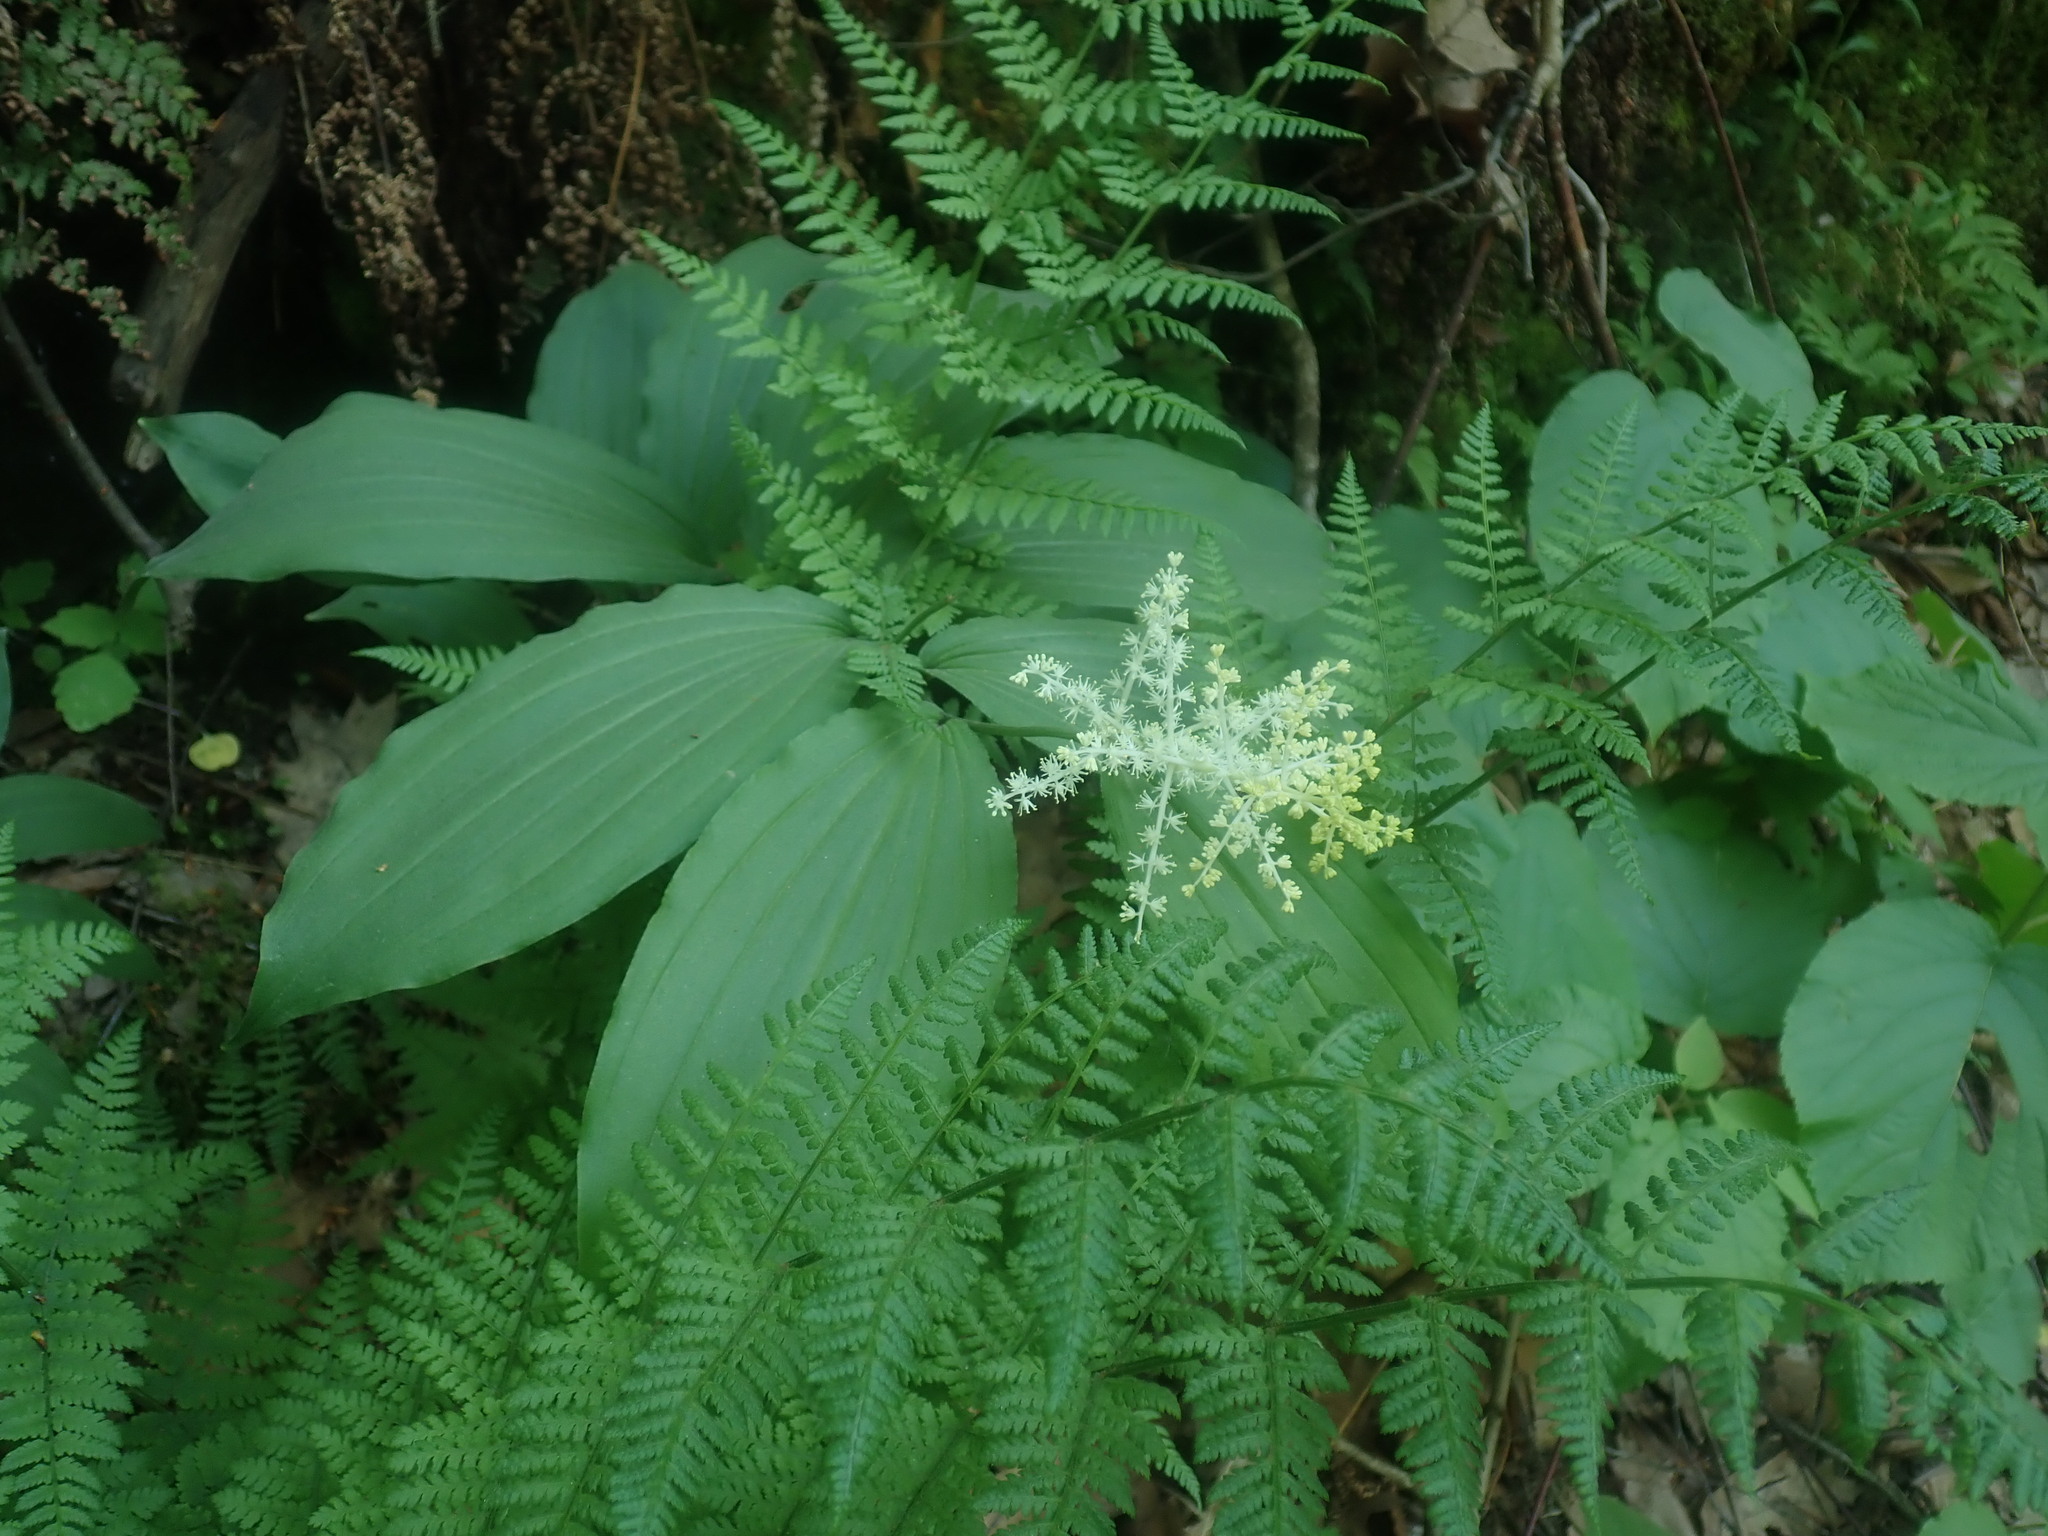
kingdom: Plantae
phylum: Tracheophyta
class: Liliopsida
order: Asparagales
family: Asparagaceae
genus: Maianthemum
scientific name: Maianthemum racemosum
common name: False spikenard
